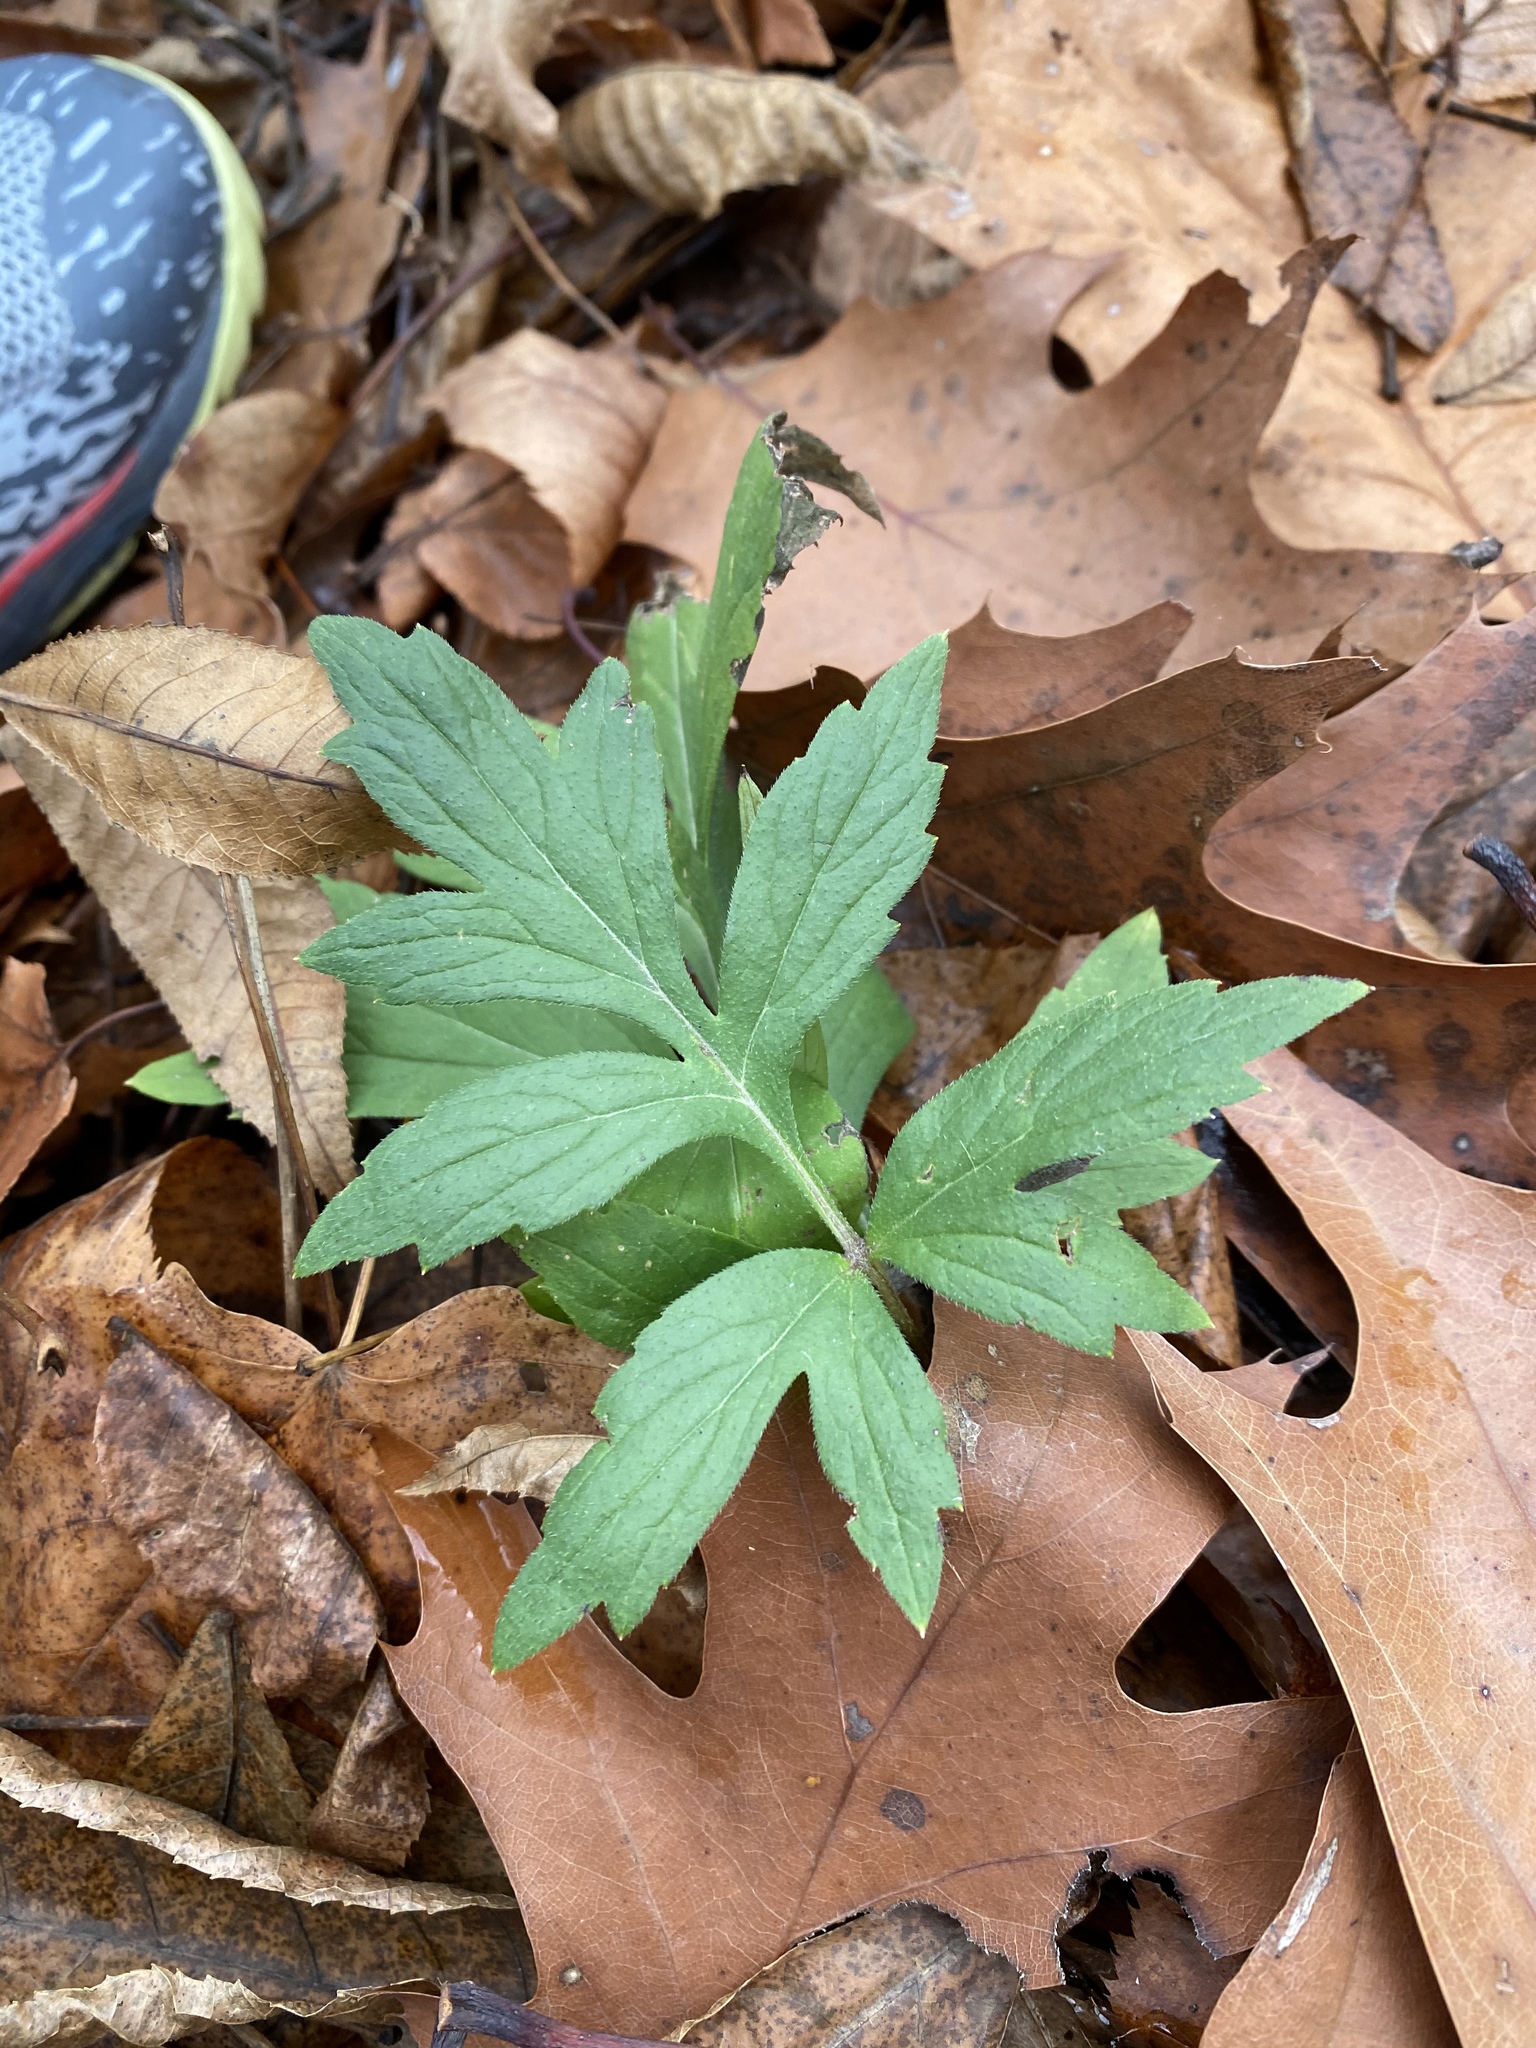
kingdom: Plantae
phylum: Tracheophyta
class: Magnoliopsida
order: Boraginales
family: Hydrophyllaceae
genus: Hydrophyllum
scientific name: Hydrophyllum virginianum
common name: Virginia waterleaf
